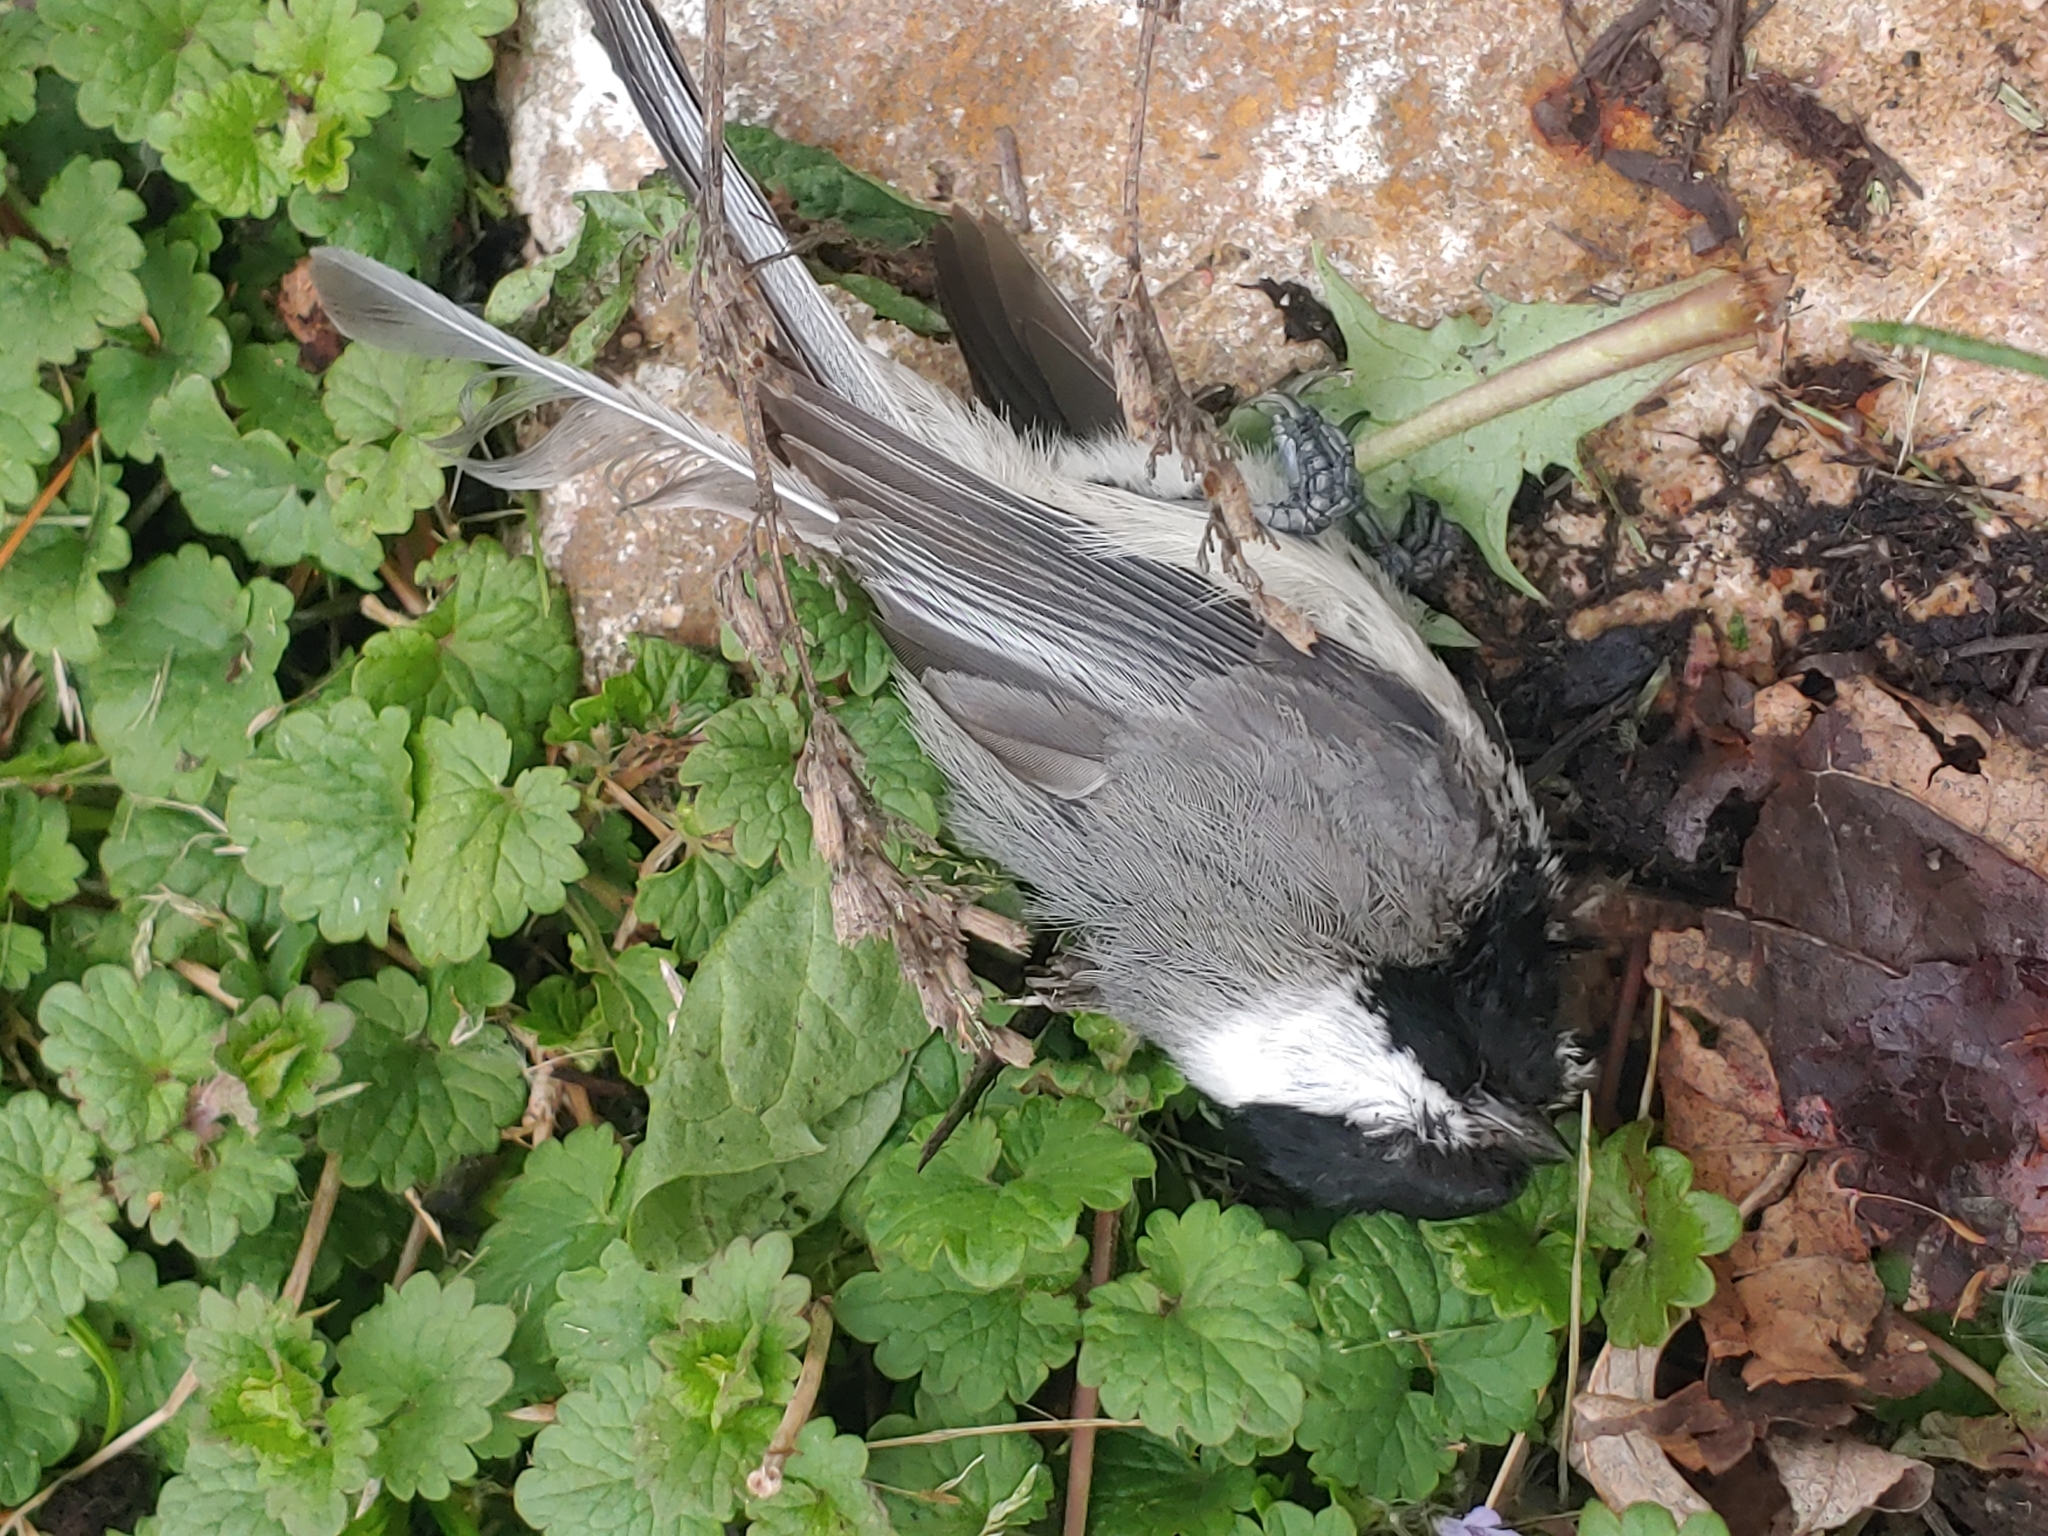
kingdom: Animalia
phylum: Chordata
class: Aves
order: Passeriformes
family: Paridae
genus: Poecile
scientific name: Poecile carolinensis
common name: Carolina chickadee
